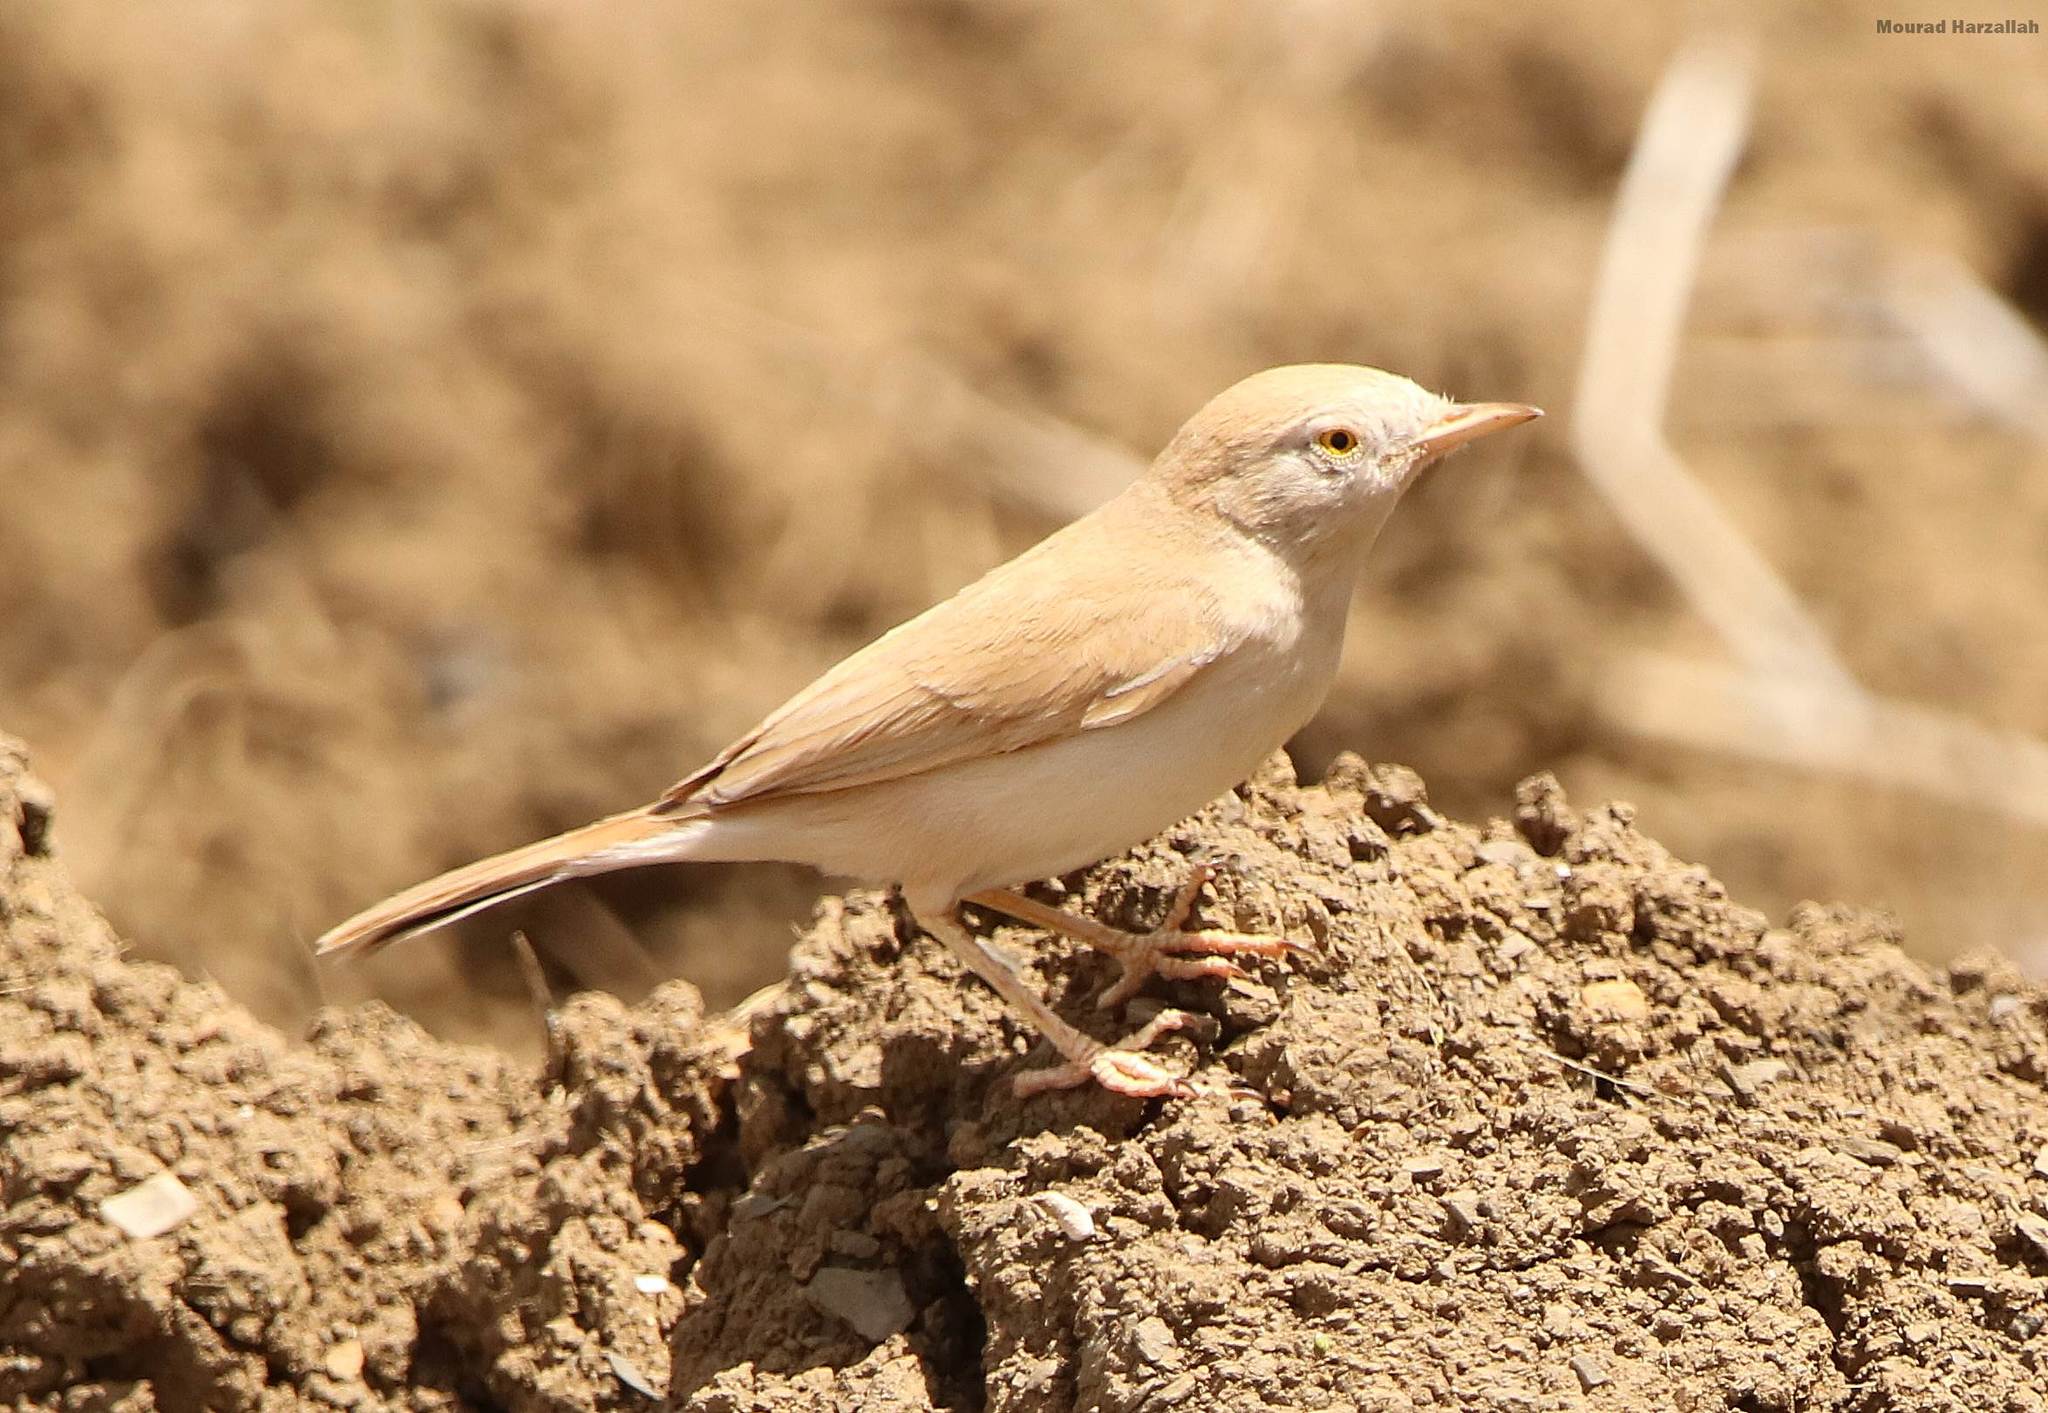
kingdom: Animalia
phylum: Chordata
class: Aves
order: Passeriformes
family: Sylviidae
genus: Sylvia
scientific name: Sylvia deserti
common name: African desert warbler
